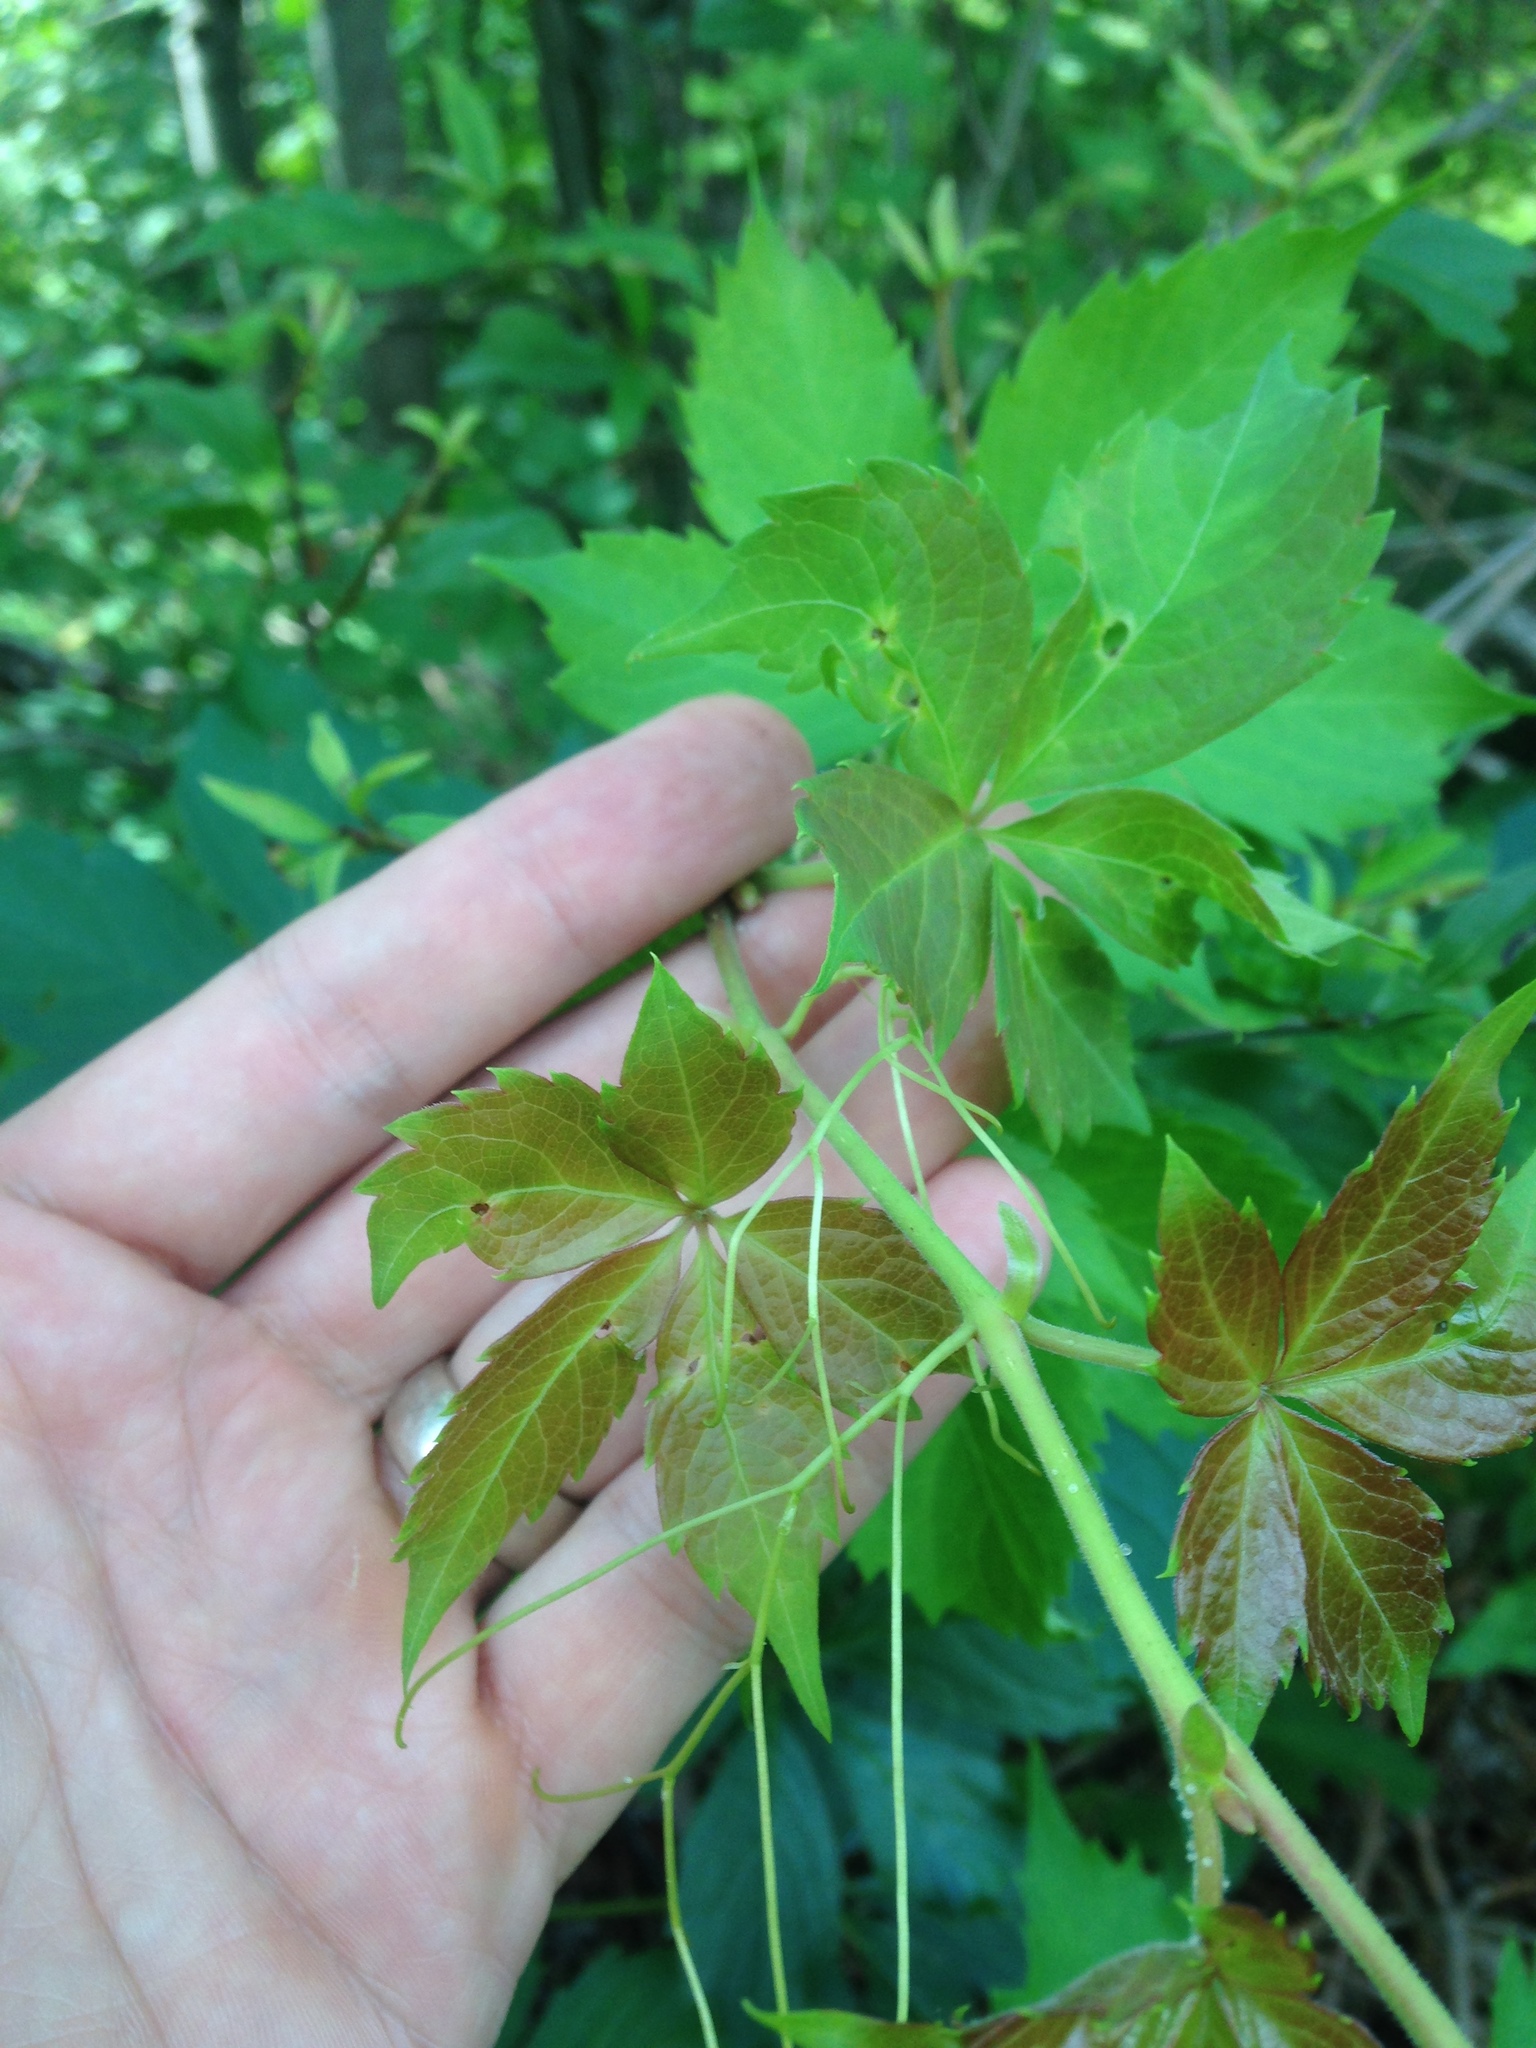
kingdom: Plantae
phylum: Tracheophyta
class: Magnoliopsida
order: Vitales
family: Vitaceae
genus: Parthenocissus
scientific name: Parthenocissus quinquefolia
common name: Virginia-creeper
